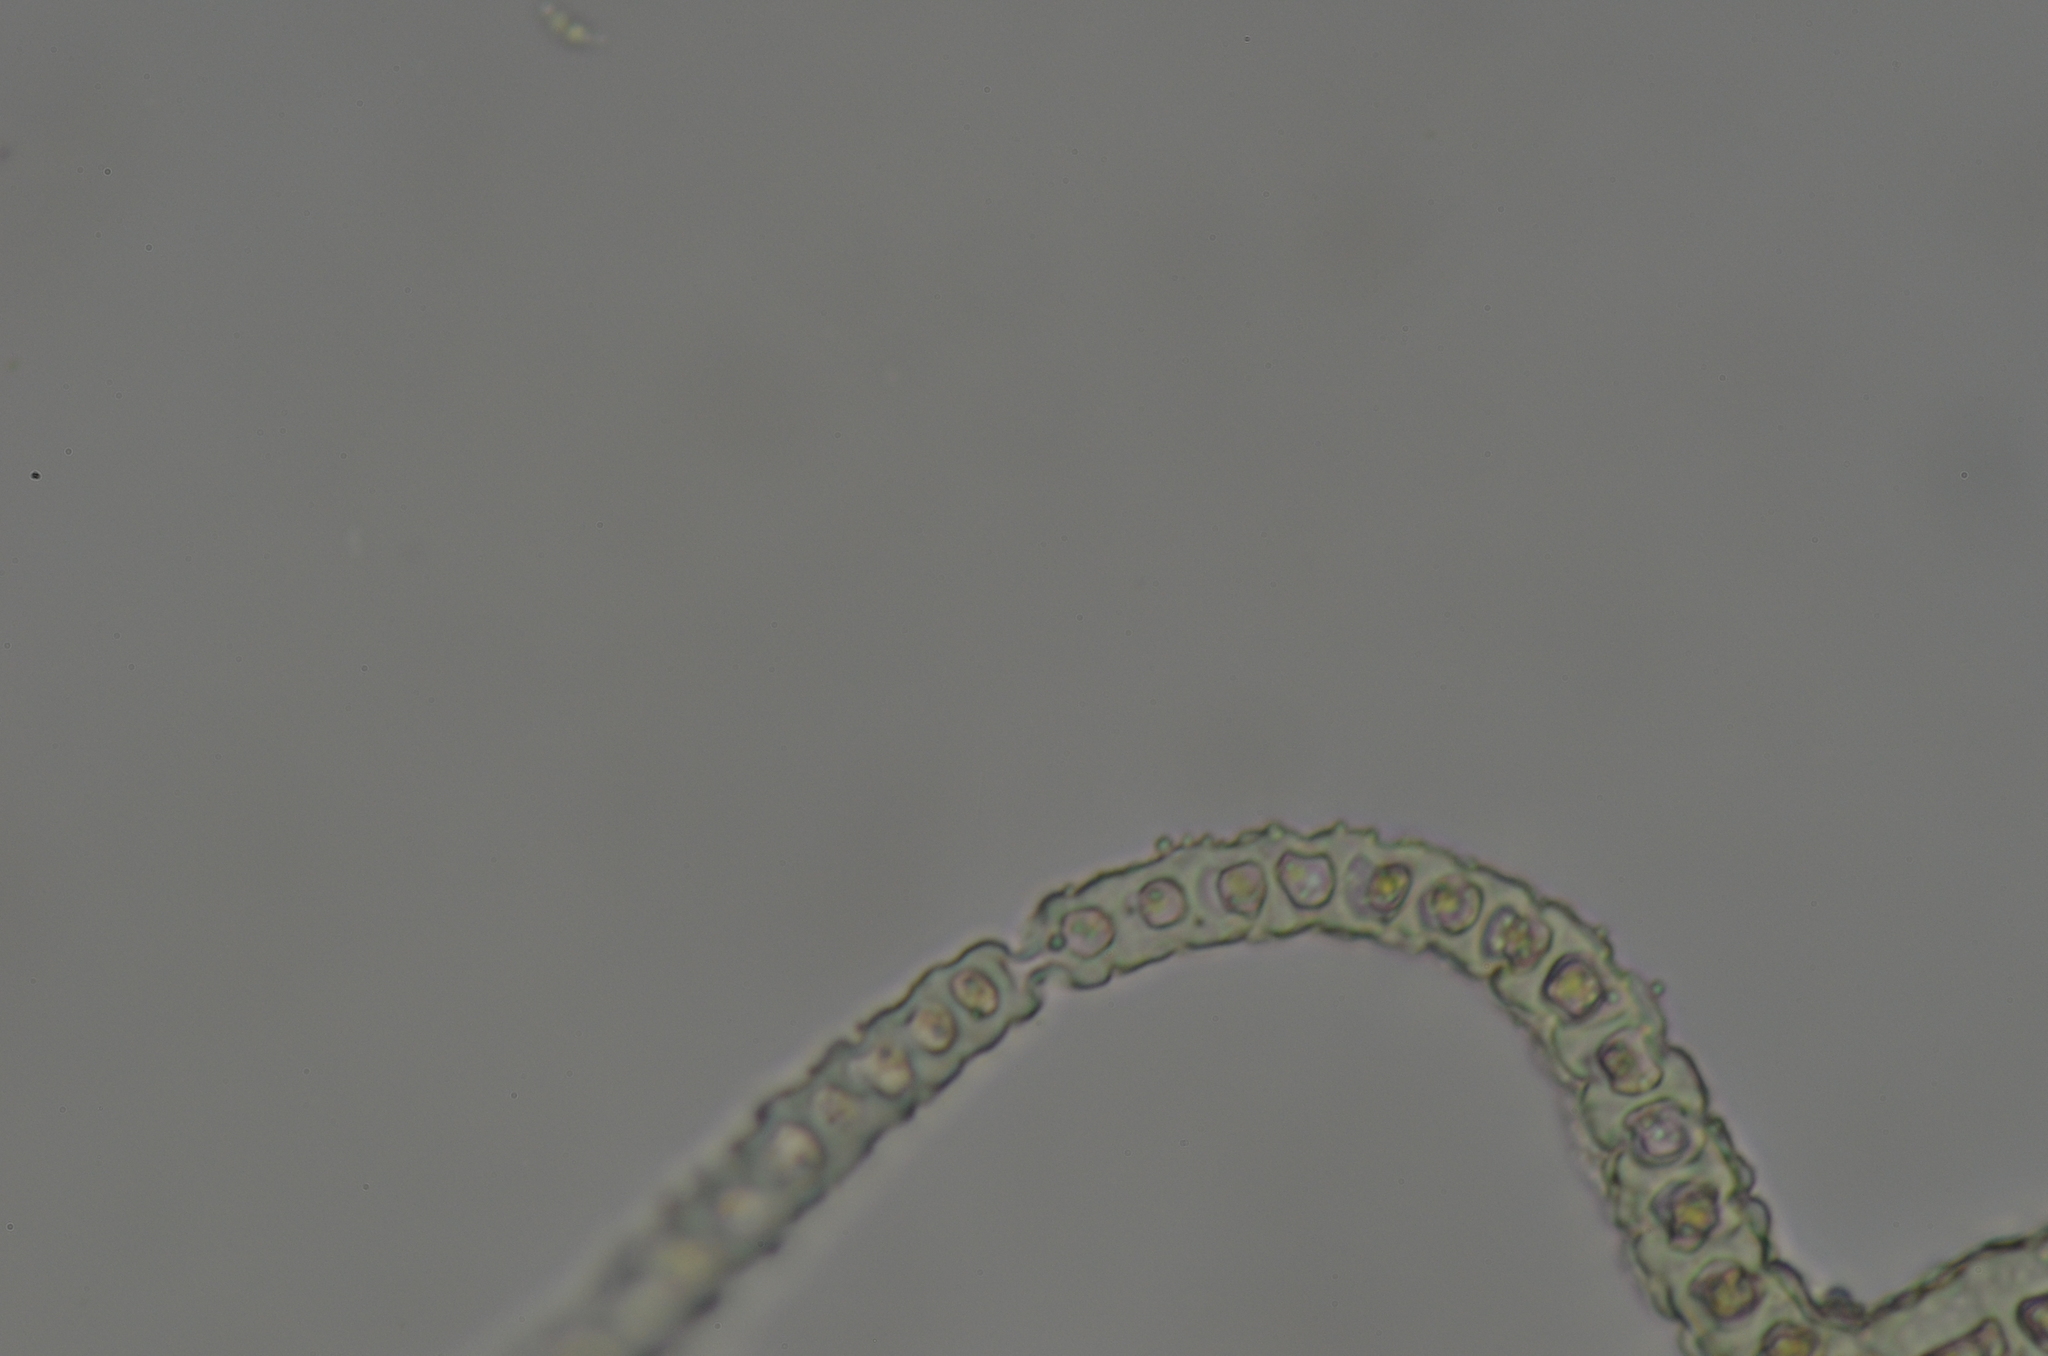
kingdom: Plantae
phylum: Bryophyta
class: Bryopsida
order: Grimmiales
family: Grimmiaceae
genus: Codriophorus
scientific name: Codriophorus ryszardii
